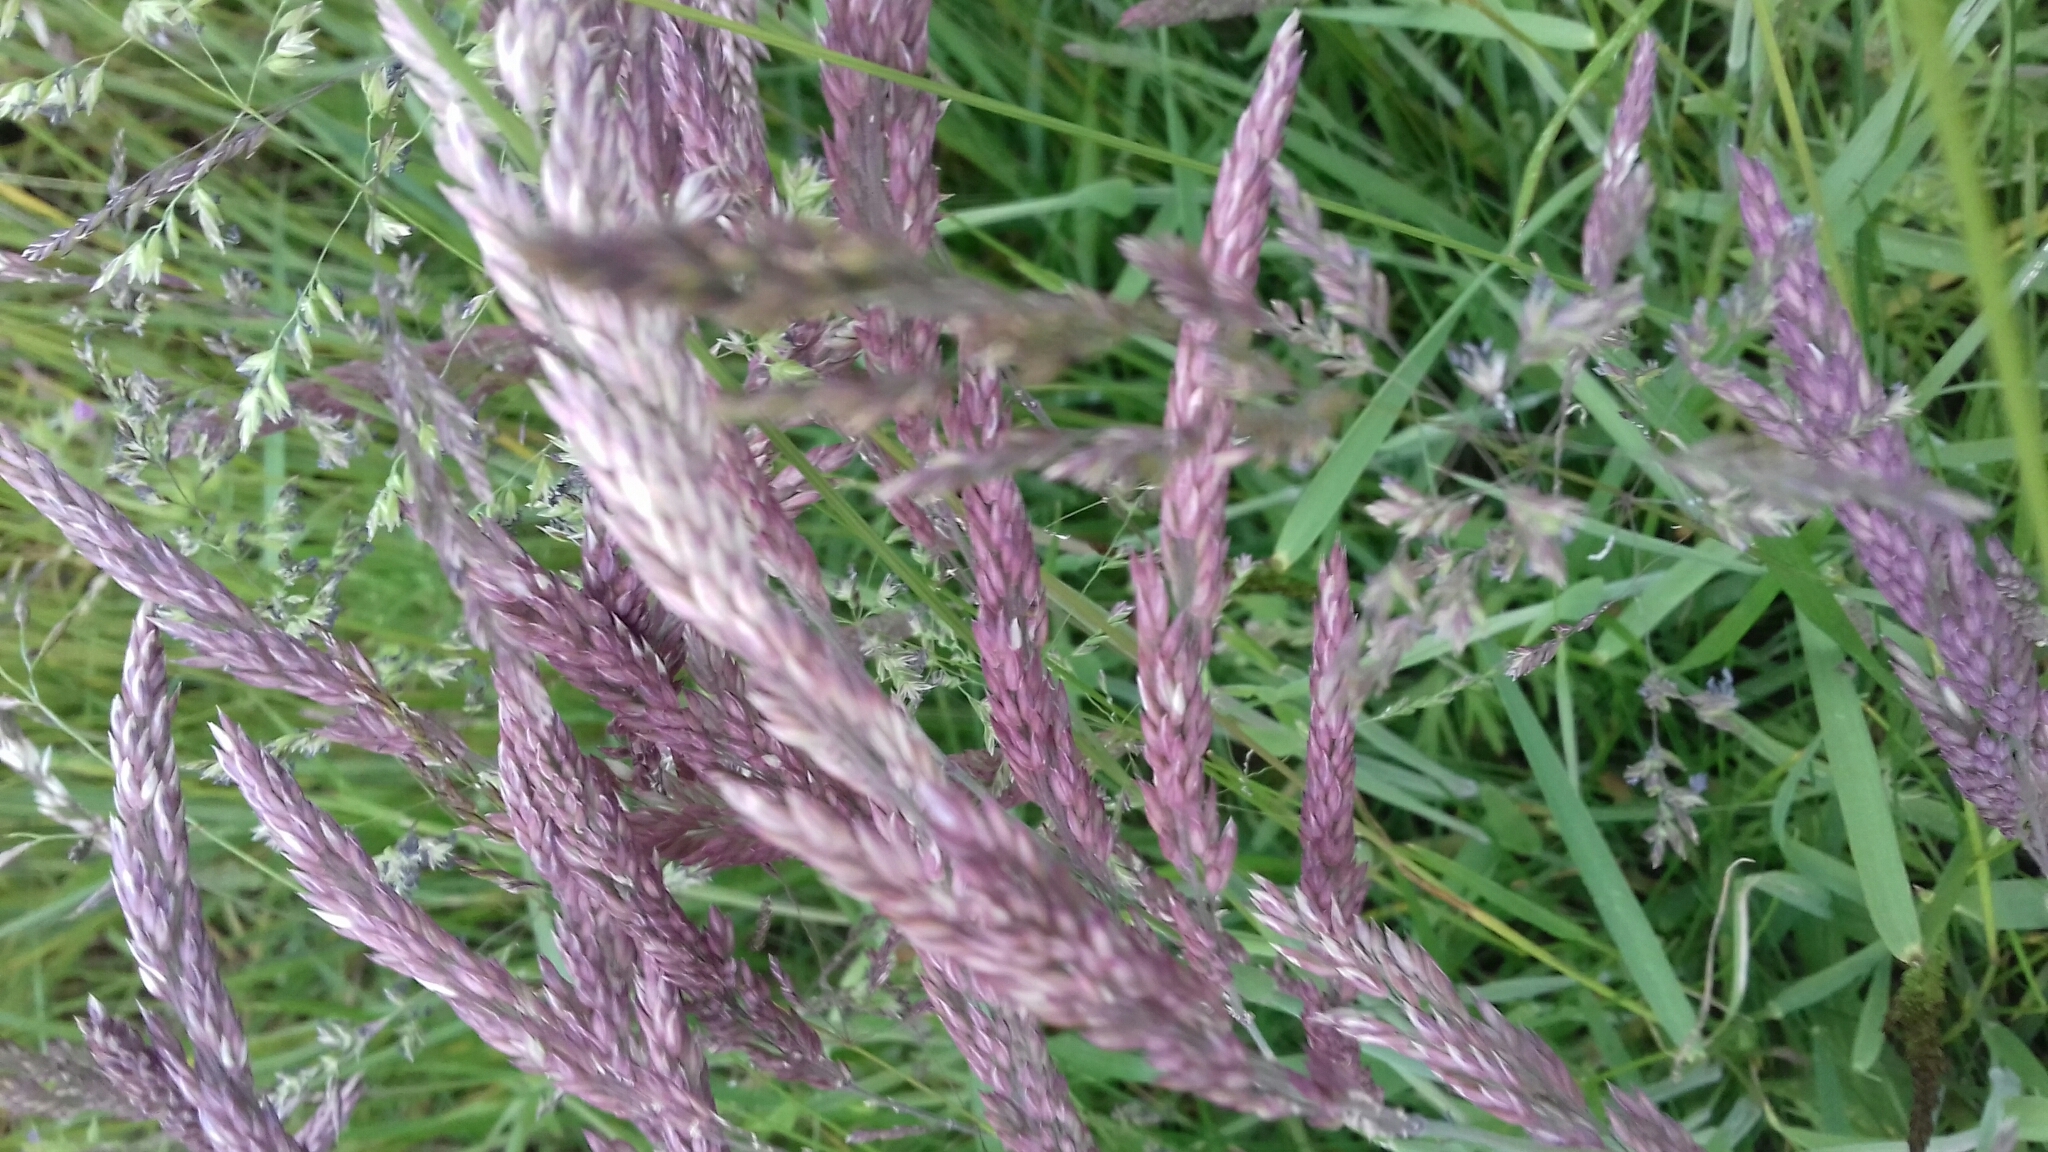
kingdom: Plantae
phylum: Tracheophyta
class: Liliopsida
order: Poales
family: Poaceae
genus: Holcus
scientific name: Holcus lanatus
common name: Yorkshire-fog
